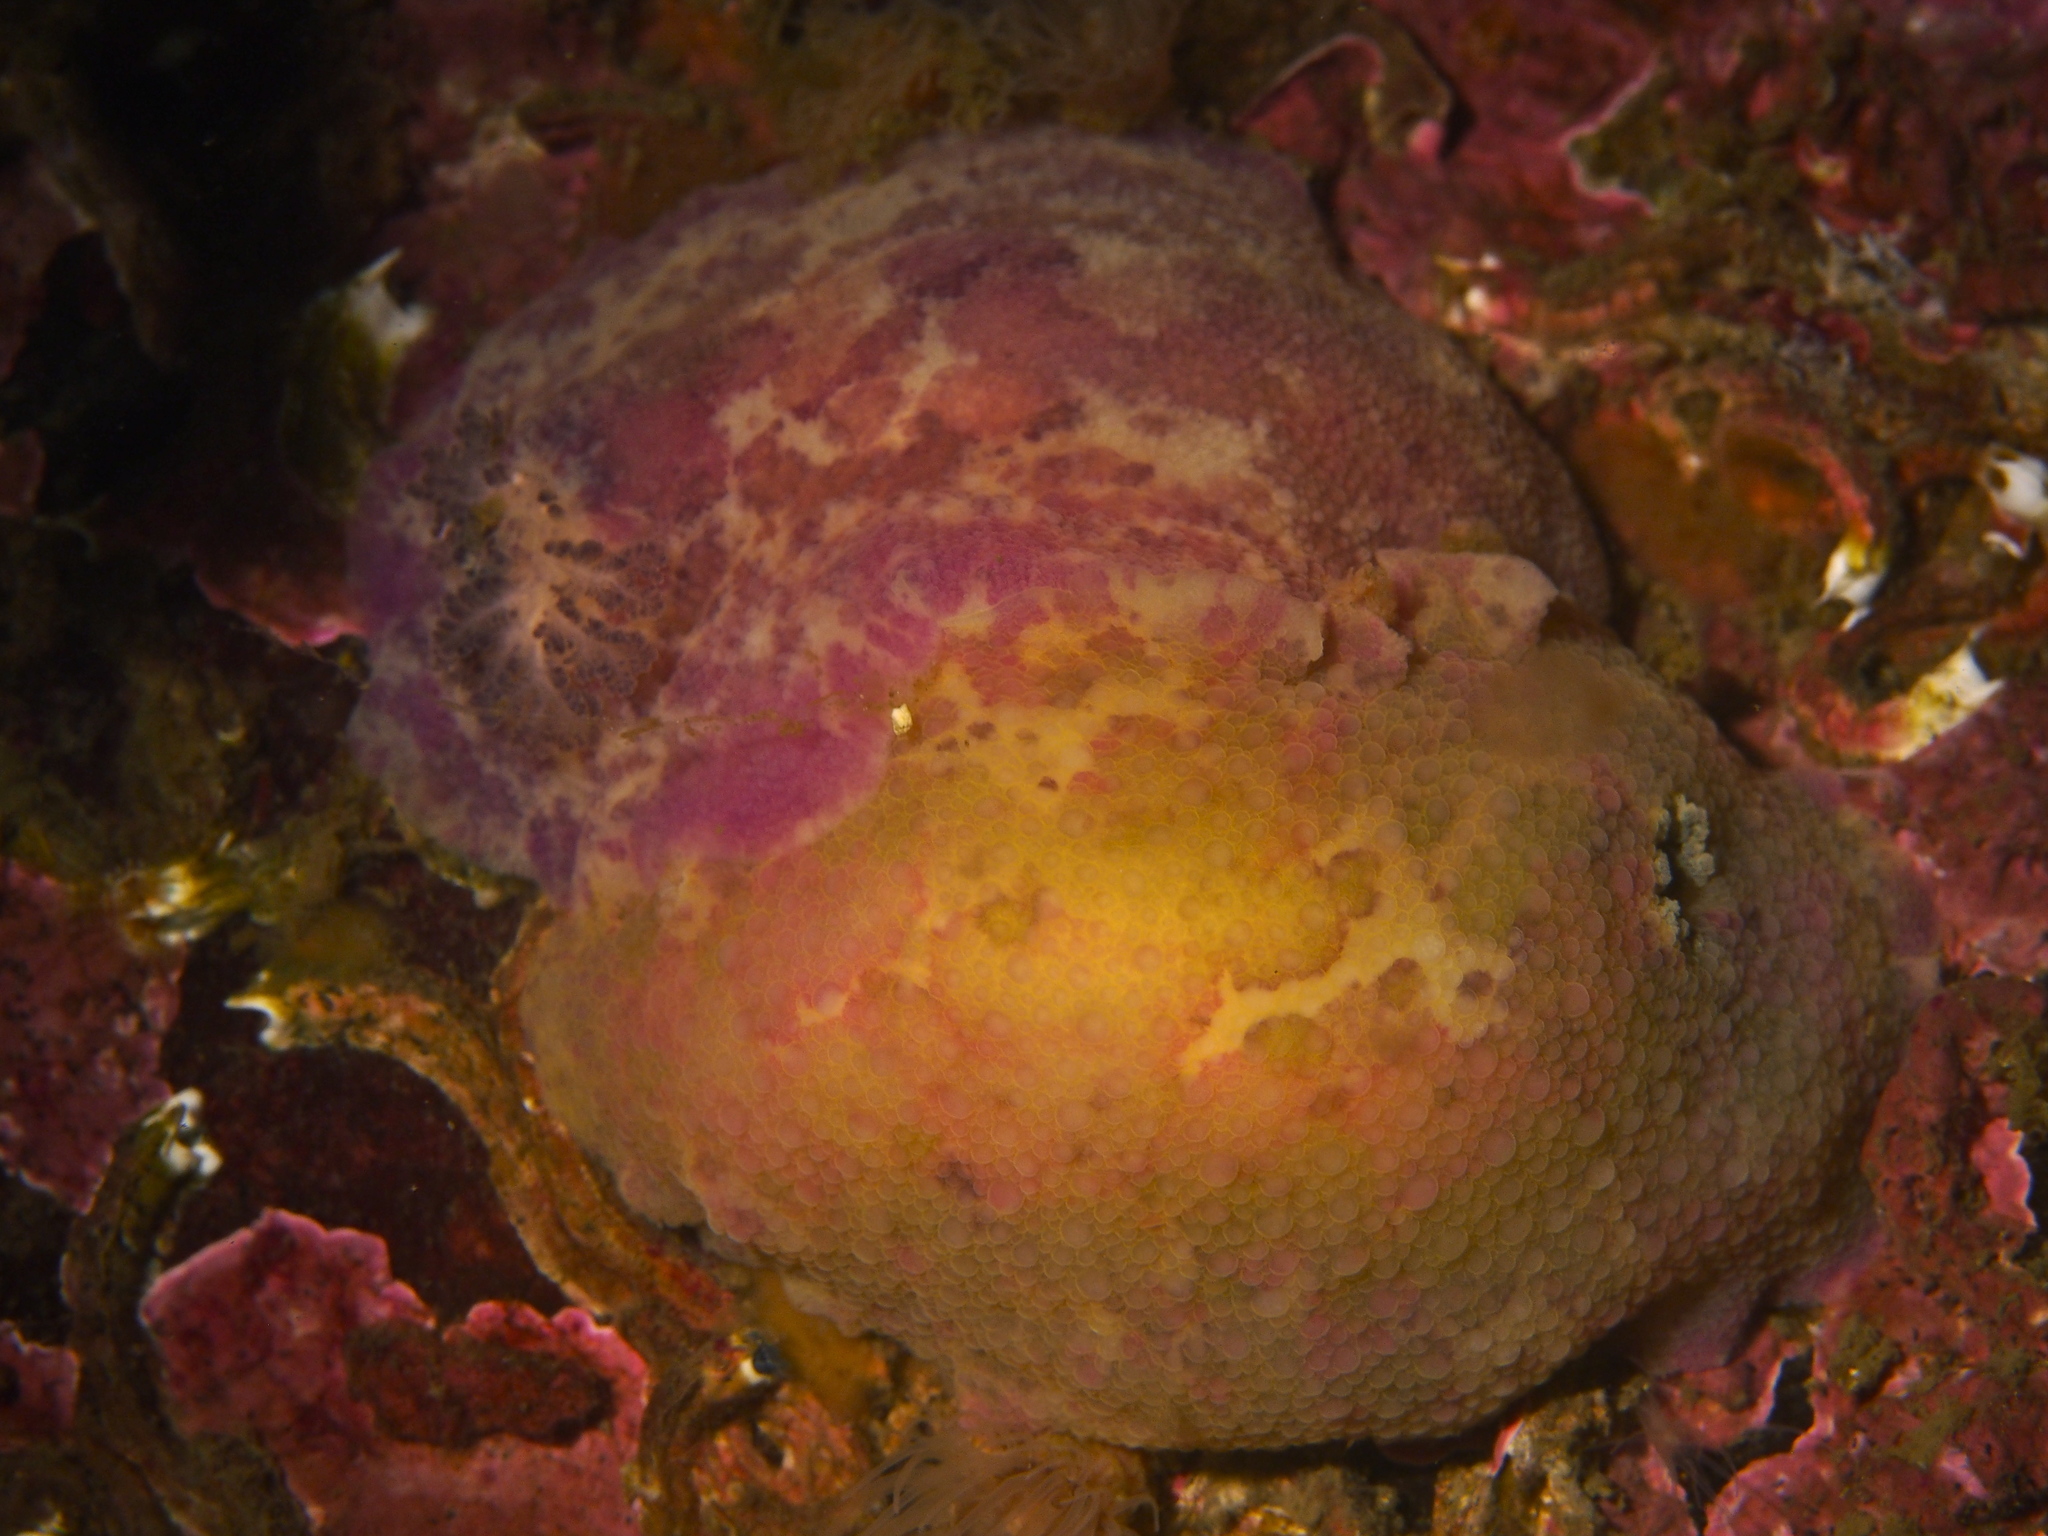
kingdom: Animalia
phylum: Mollusca
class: Gastropoda
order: Nudibranchia
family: Dorididae
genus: Doris
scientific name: Doris pseudoargus
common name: Sea lemon
